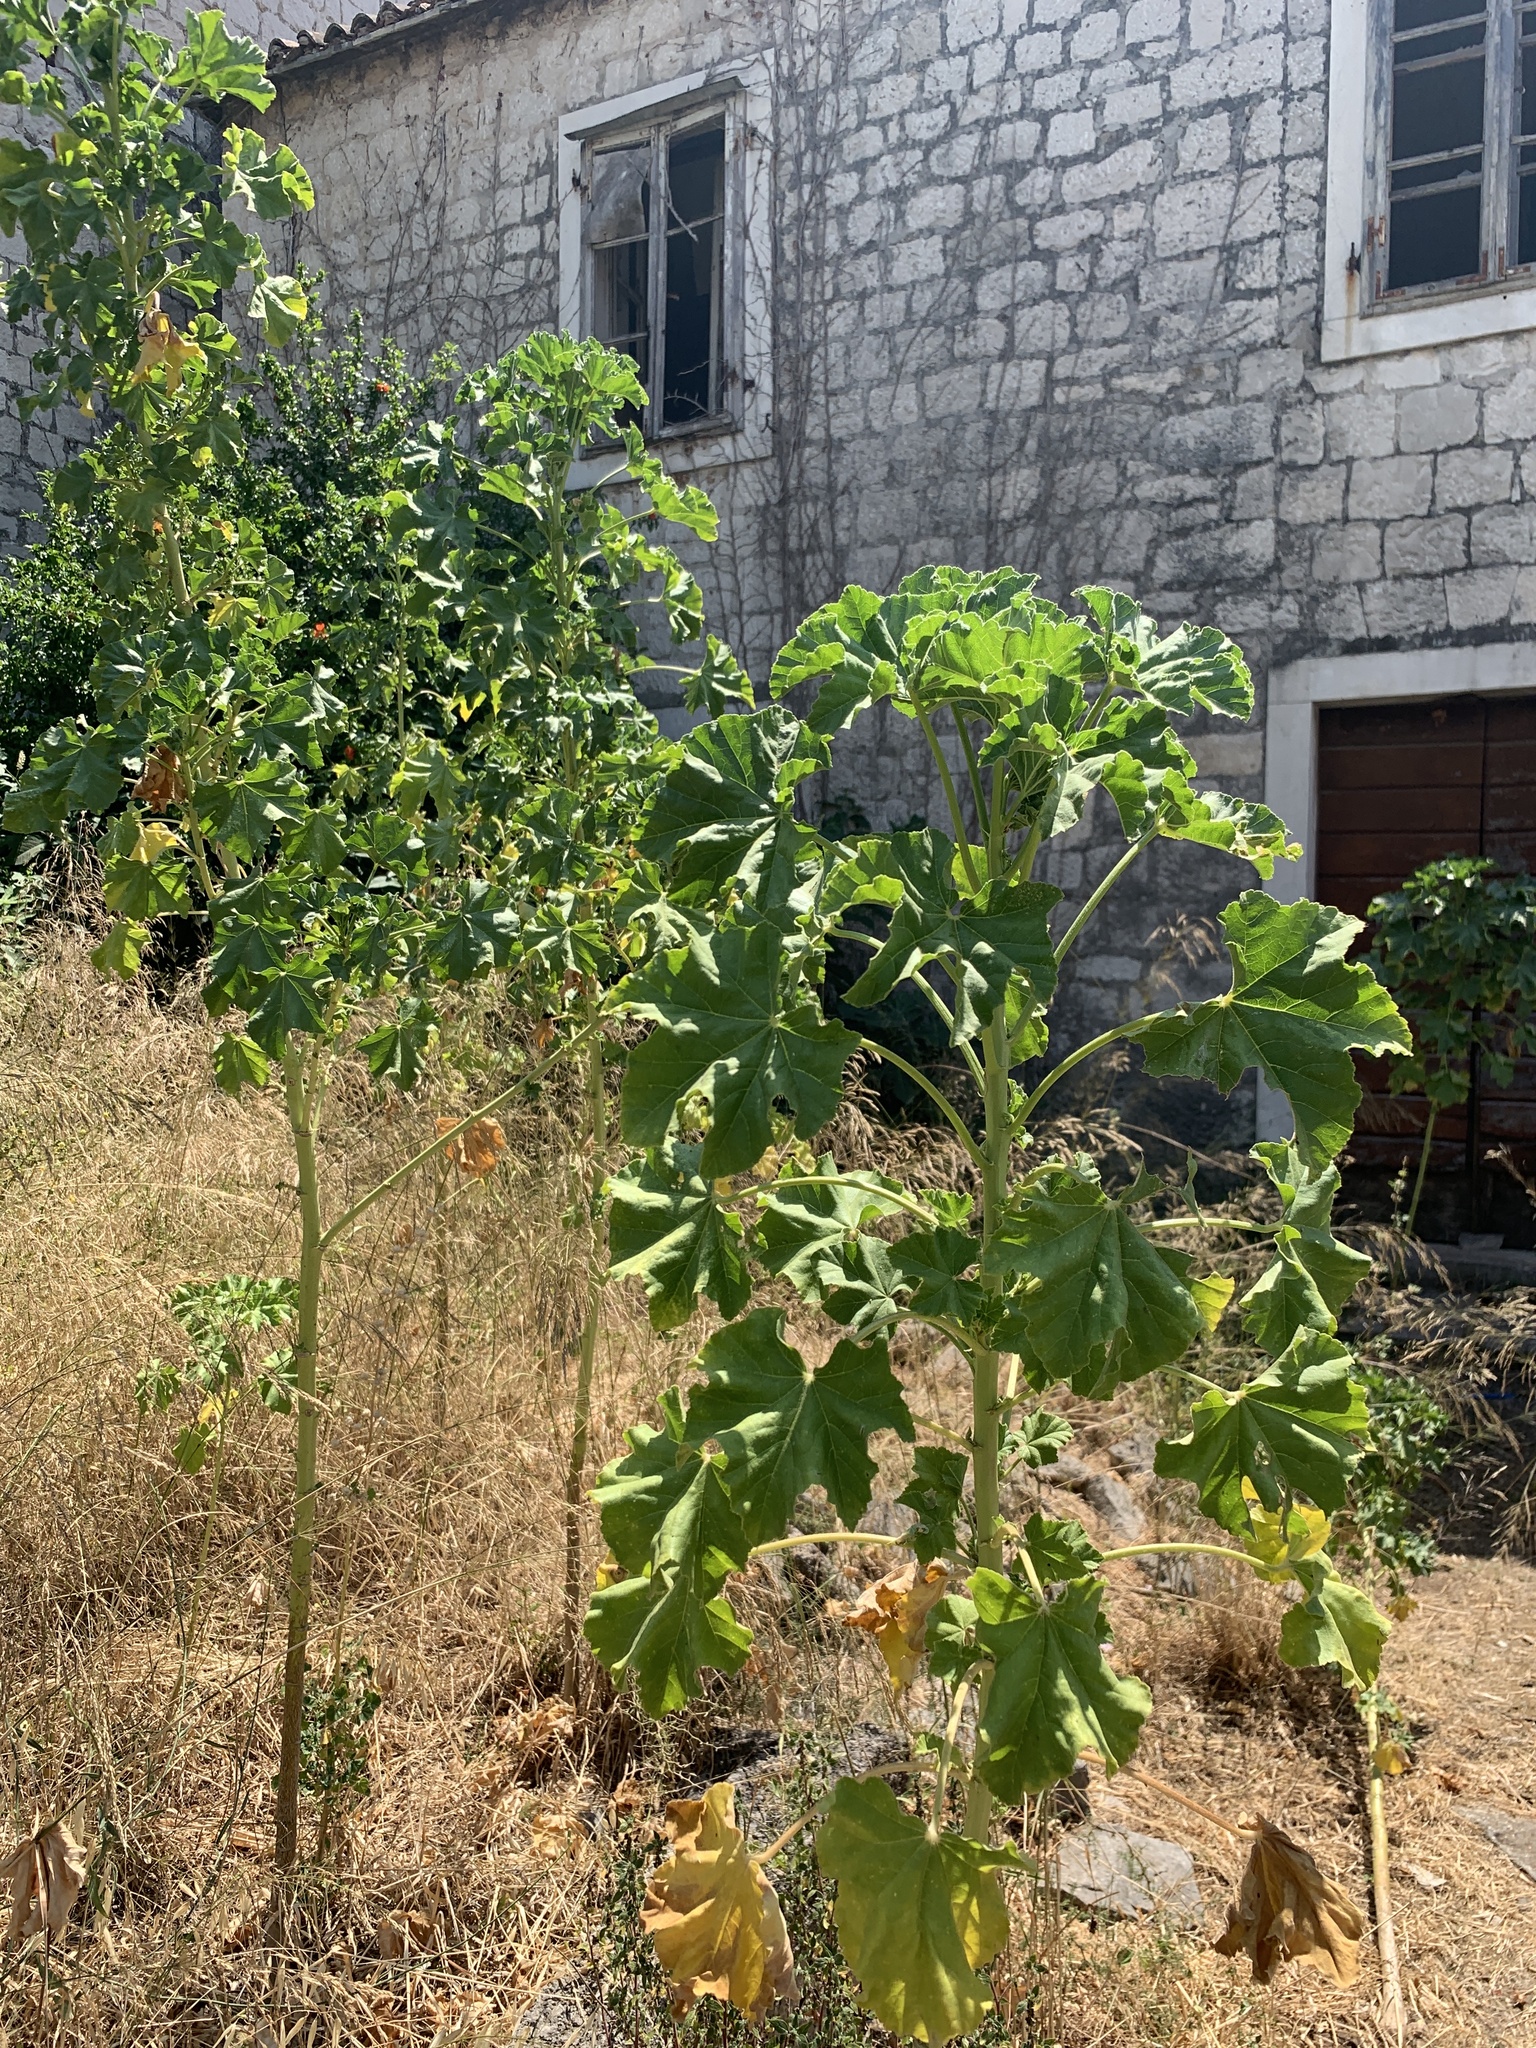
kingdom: Plantae
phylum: Tracheophyta
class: Magnoliopsida
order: Malvales
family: Malvaceae
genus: Malva
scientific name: Malva arborea
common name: Tree mallow
